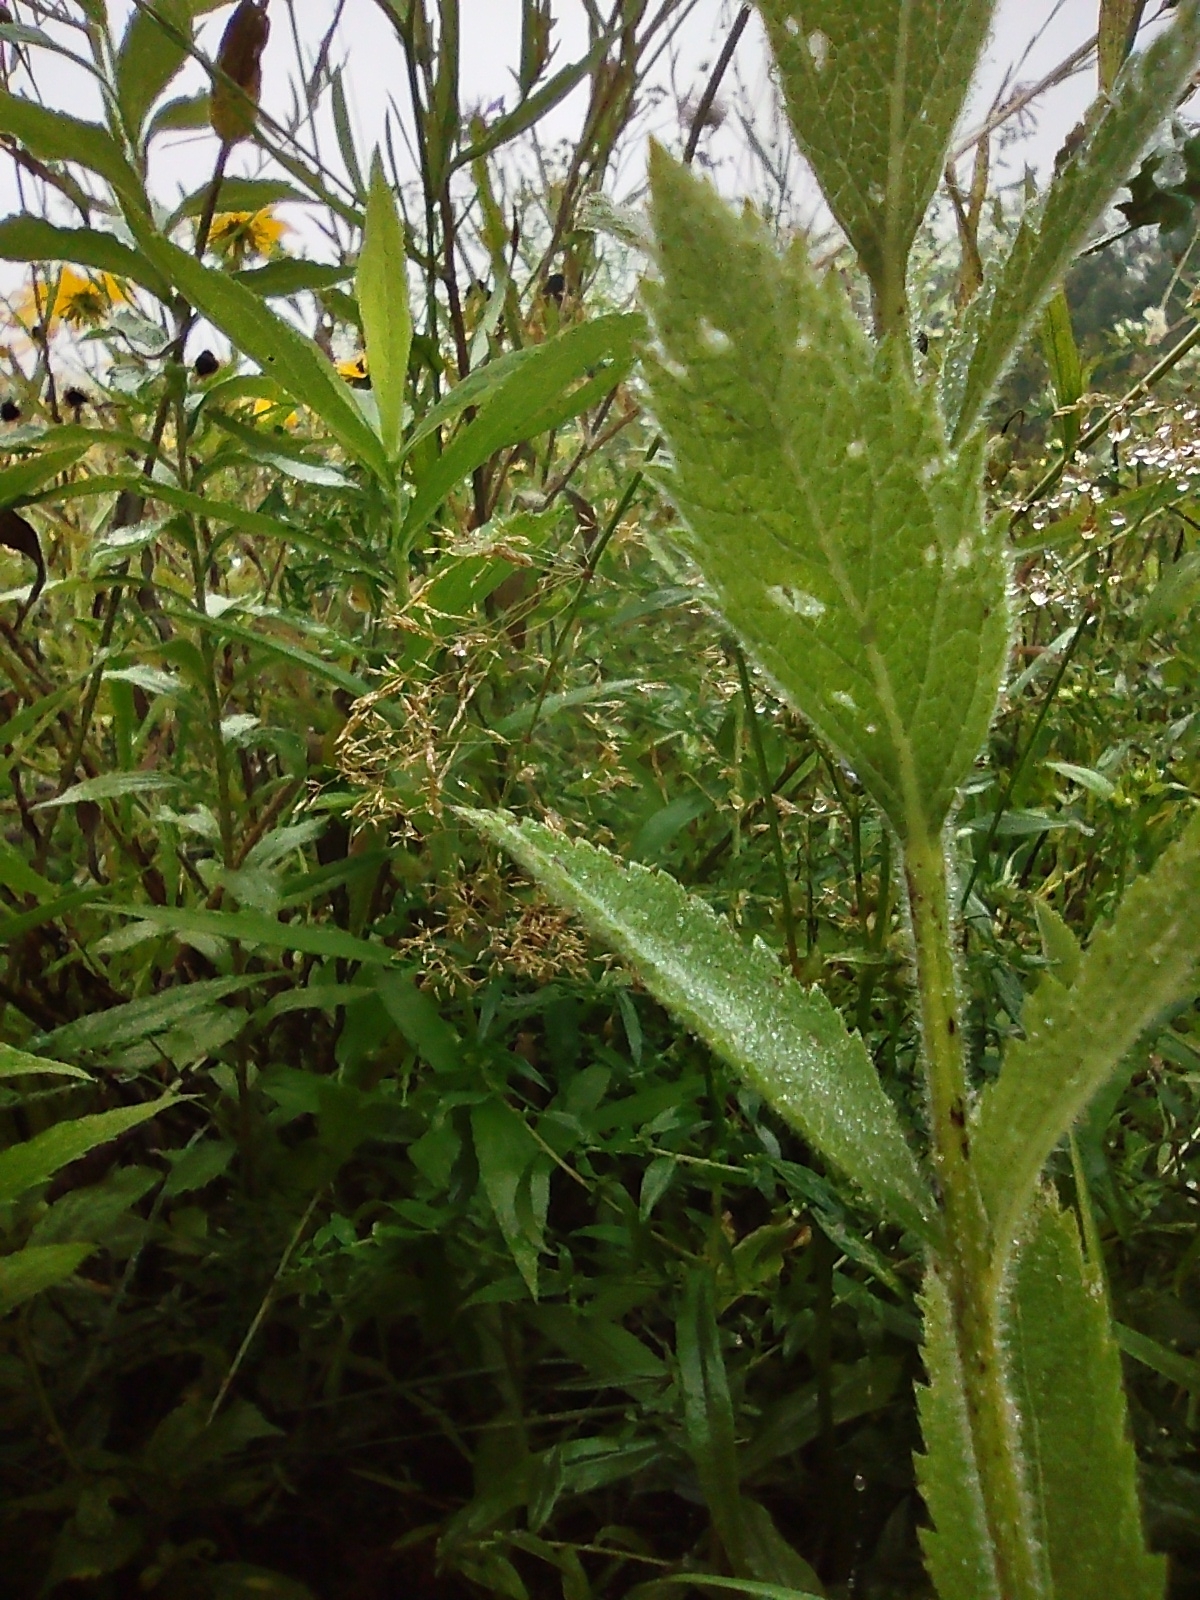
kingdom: Plantae
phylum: Tracheophyta
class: Magnoliopsida
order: Lamiales
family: Verbenaceae
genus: Verbena
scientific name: Verbena stricta
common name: Hoary vervain
